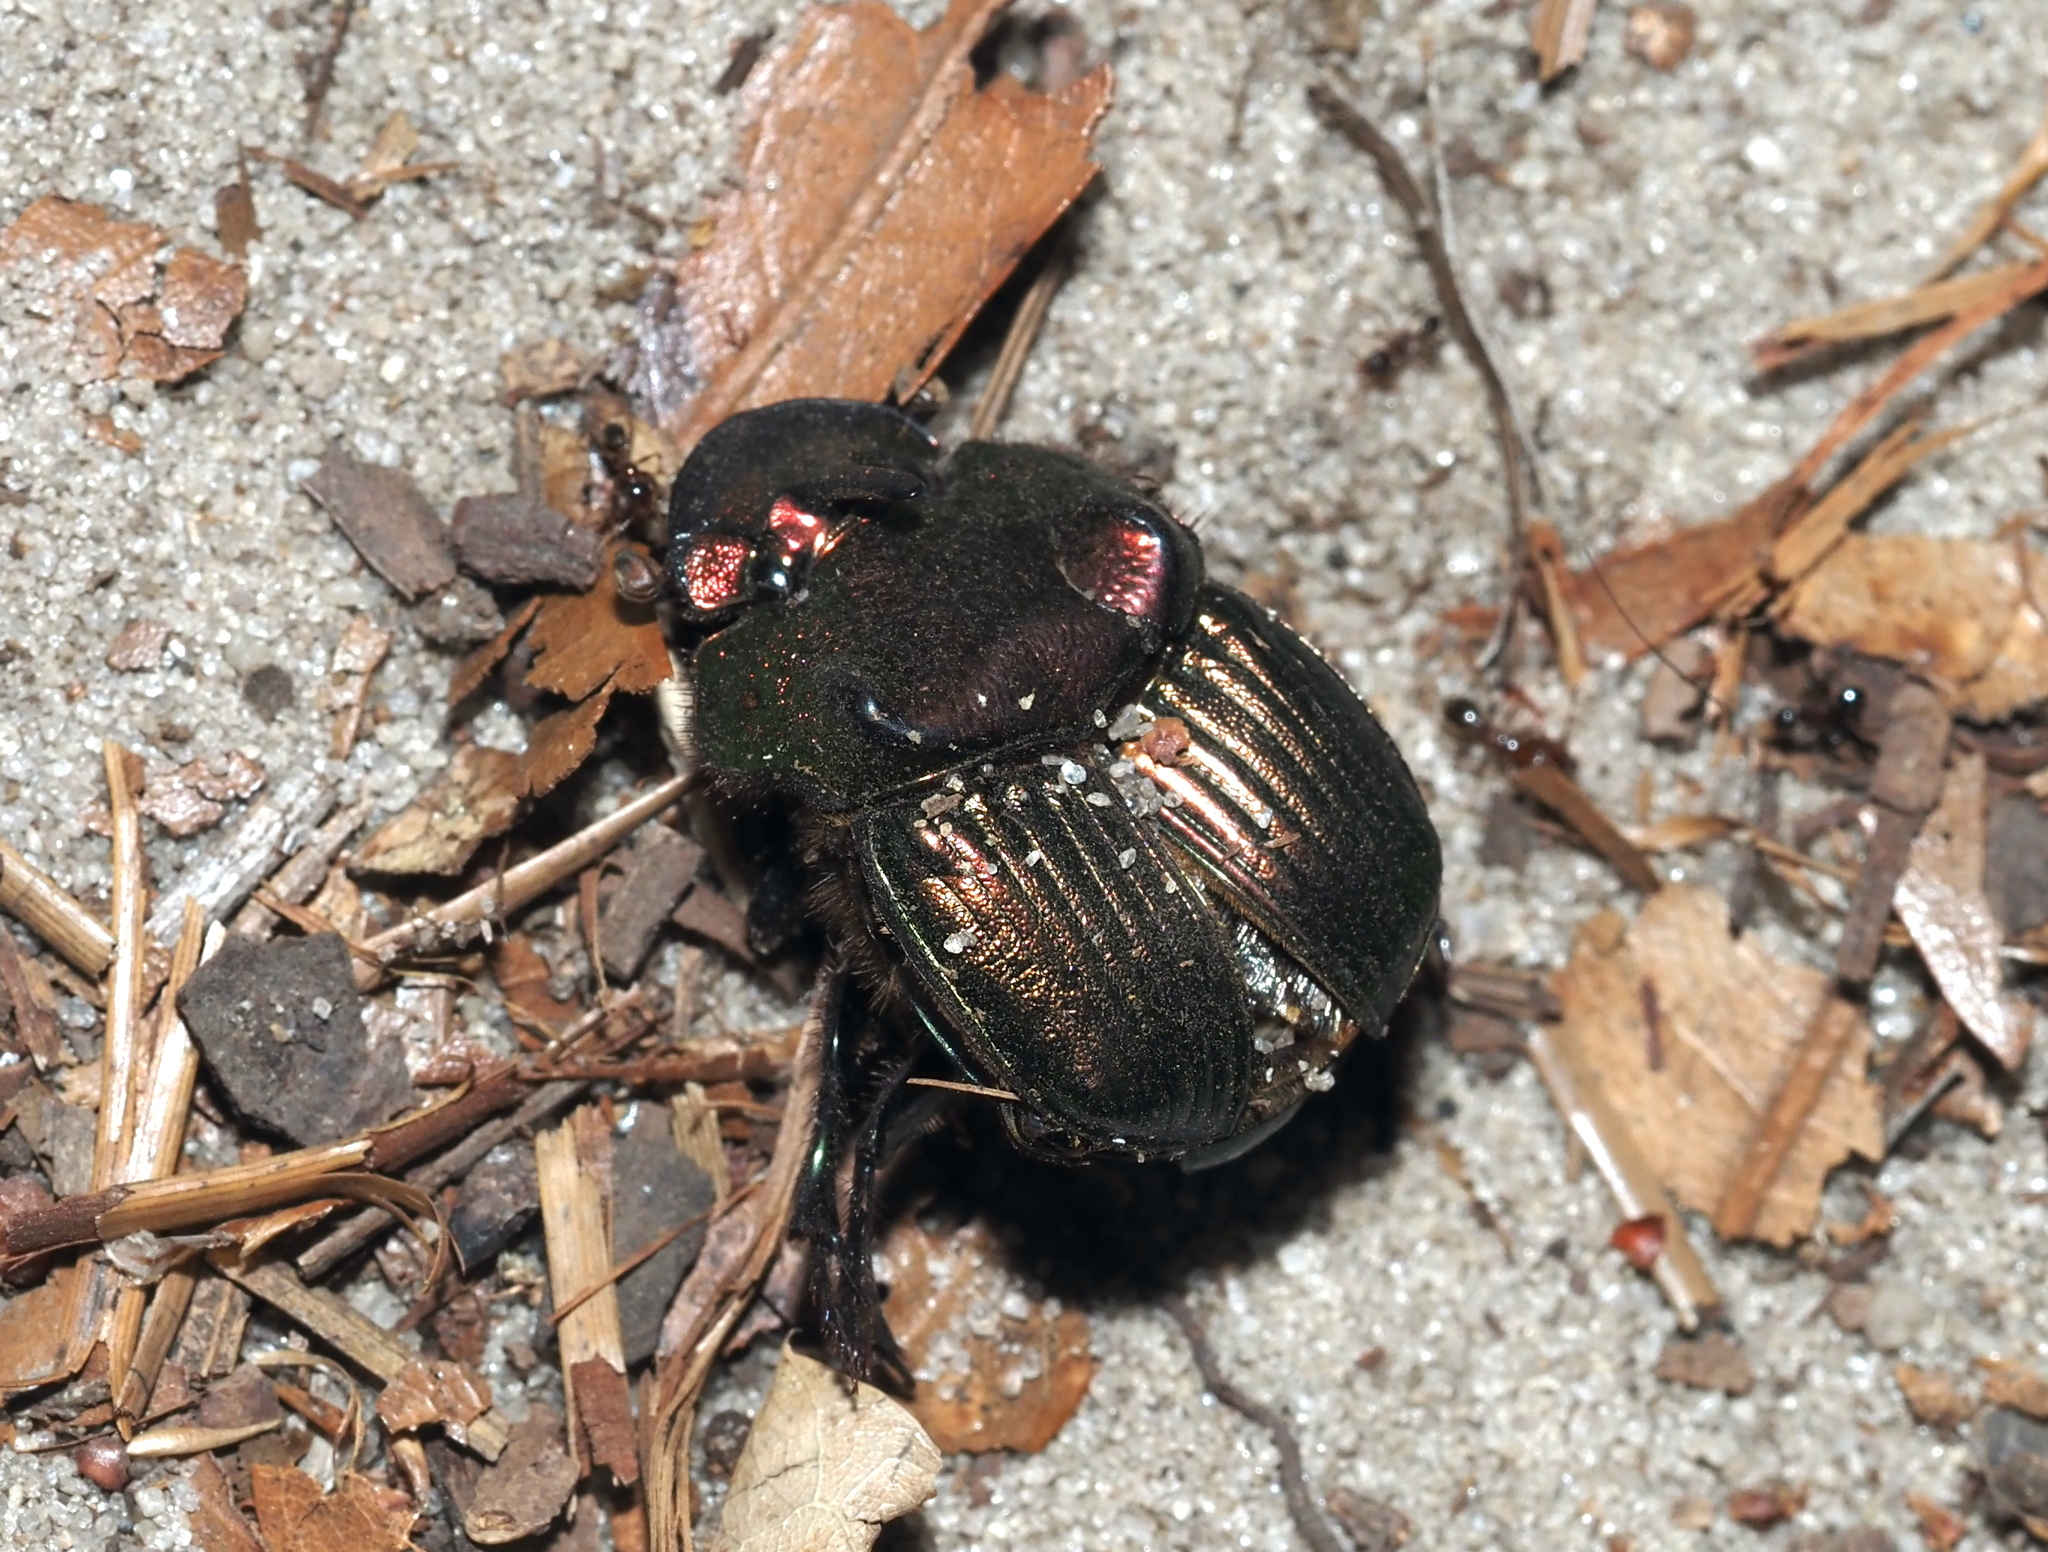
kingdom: Animalia
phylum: Arthropoda
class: Insecta
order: Coleoptera
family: Scarabaeidae
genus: Phanaeus
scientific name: Phanaeus igneus
